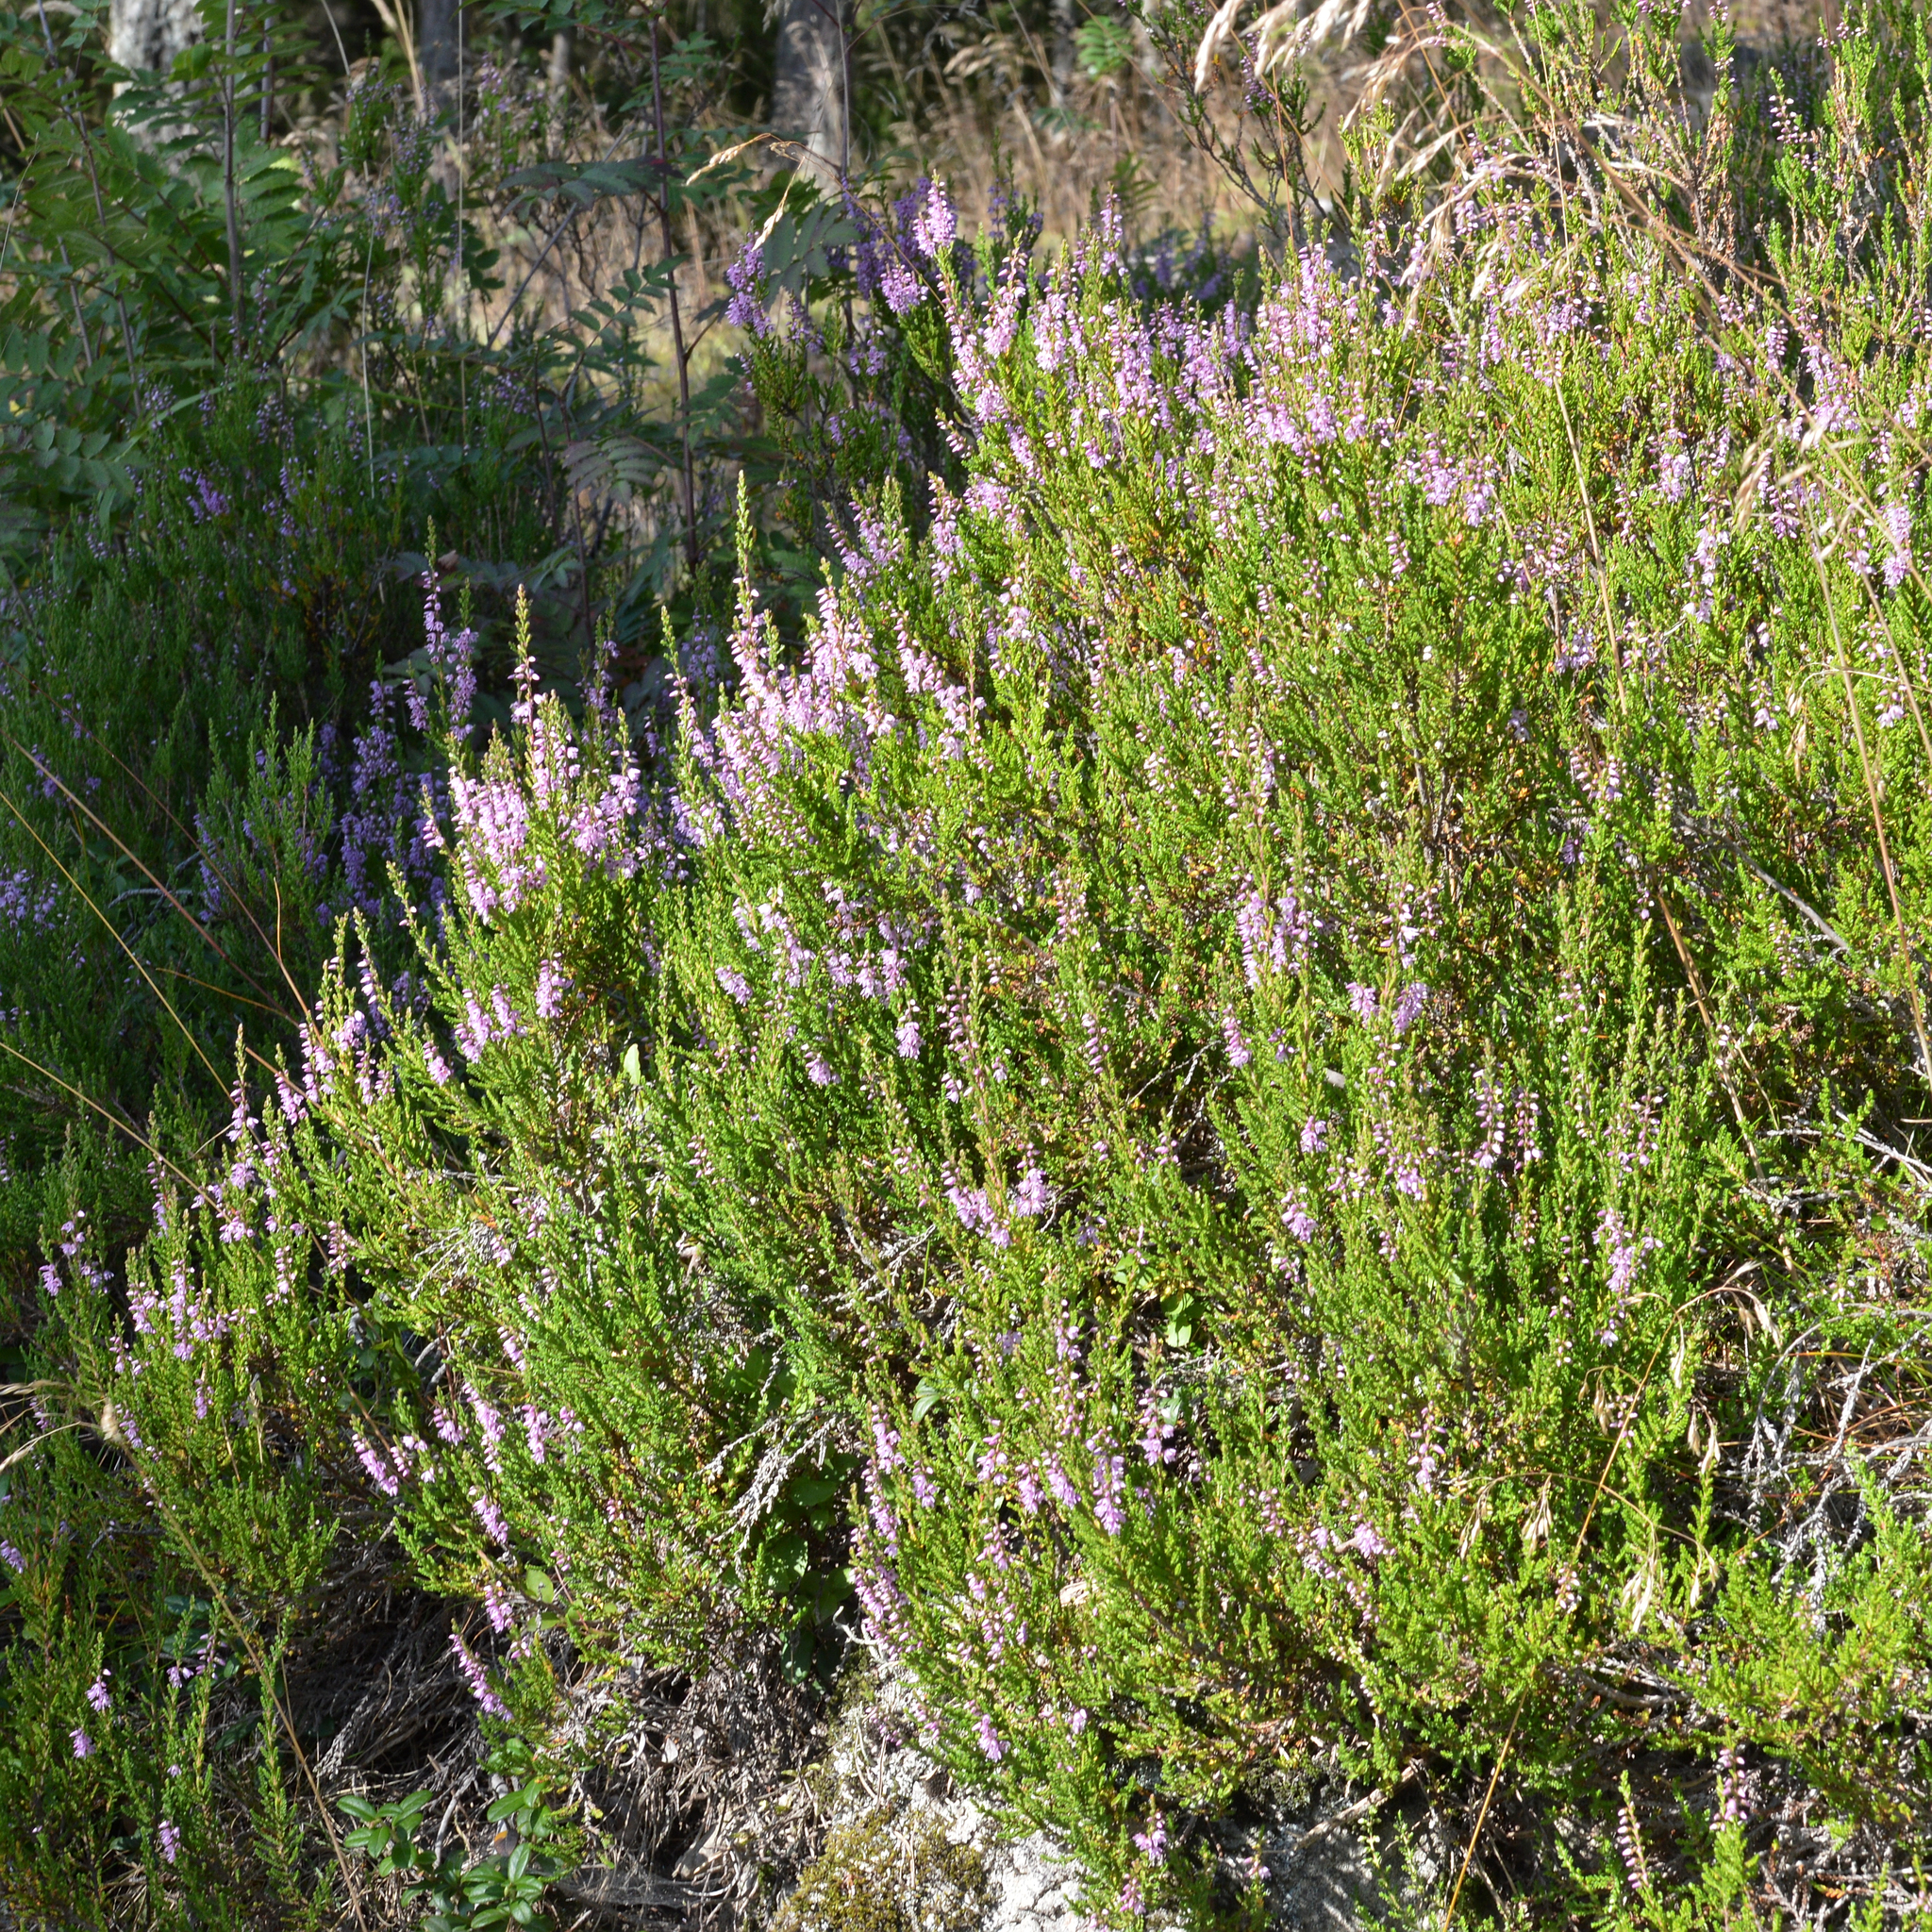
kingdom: Plantae
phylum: Tracheophyta
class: Magnoliopsida
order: Ericales
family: Ericaceae
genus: Calluna
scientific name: Calluna vulgaris
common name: Heather
